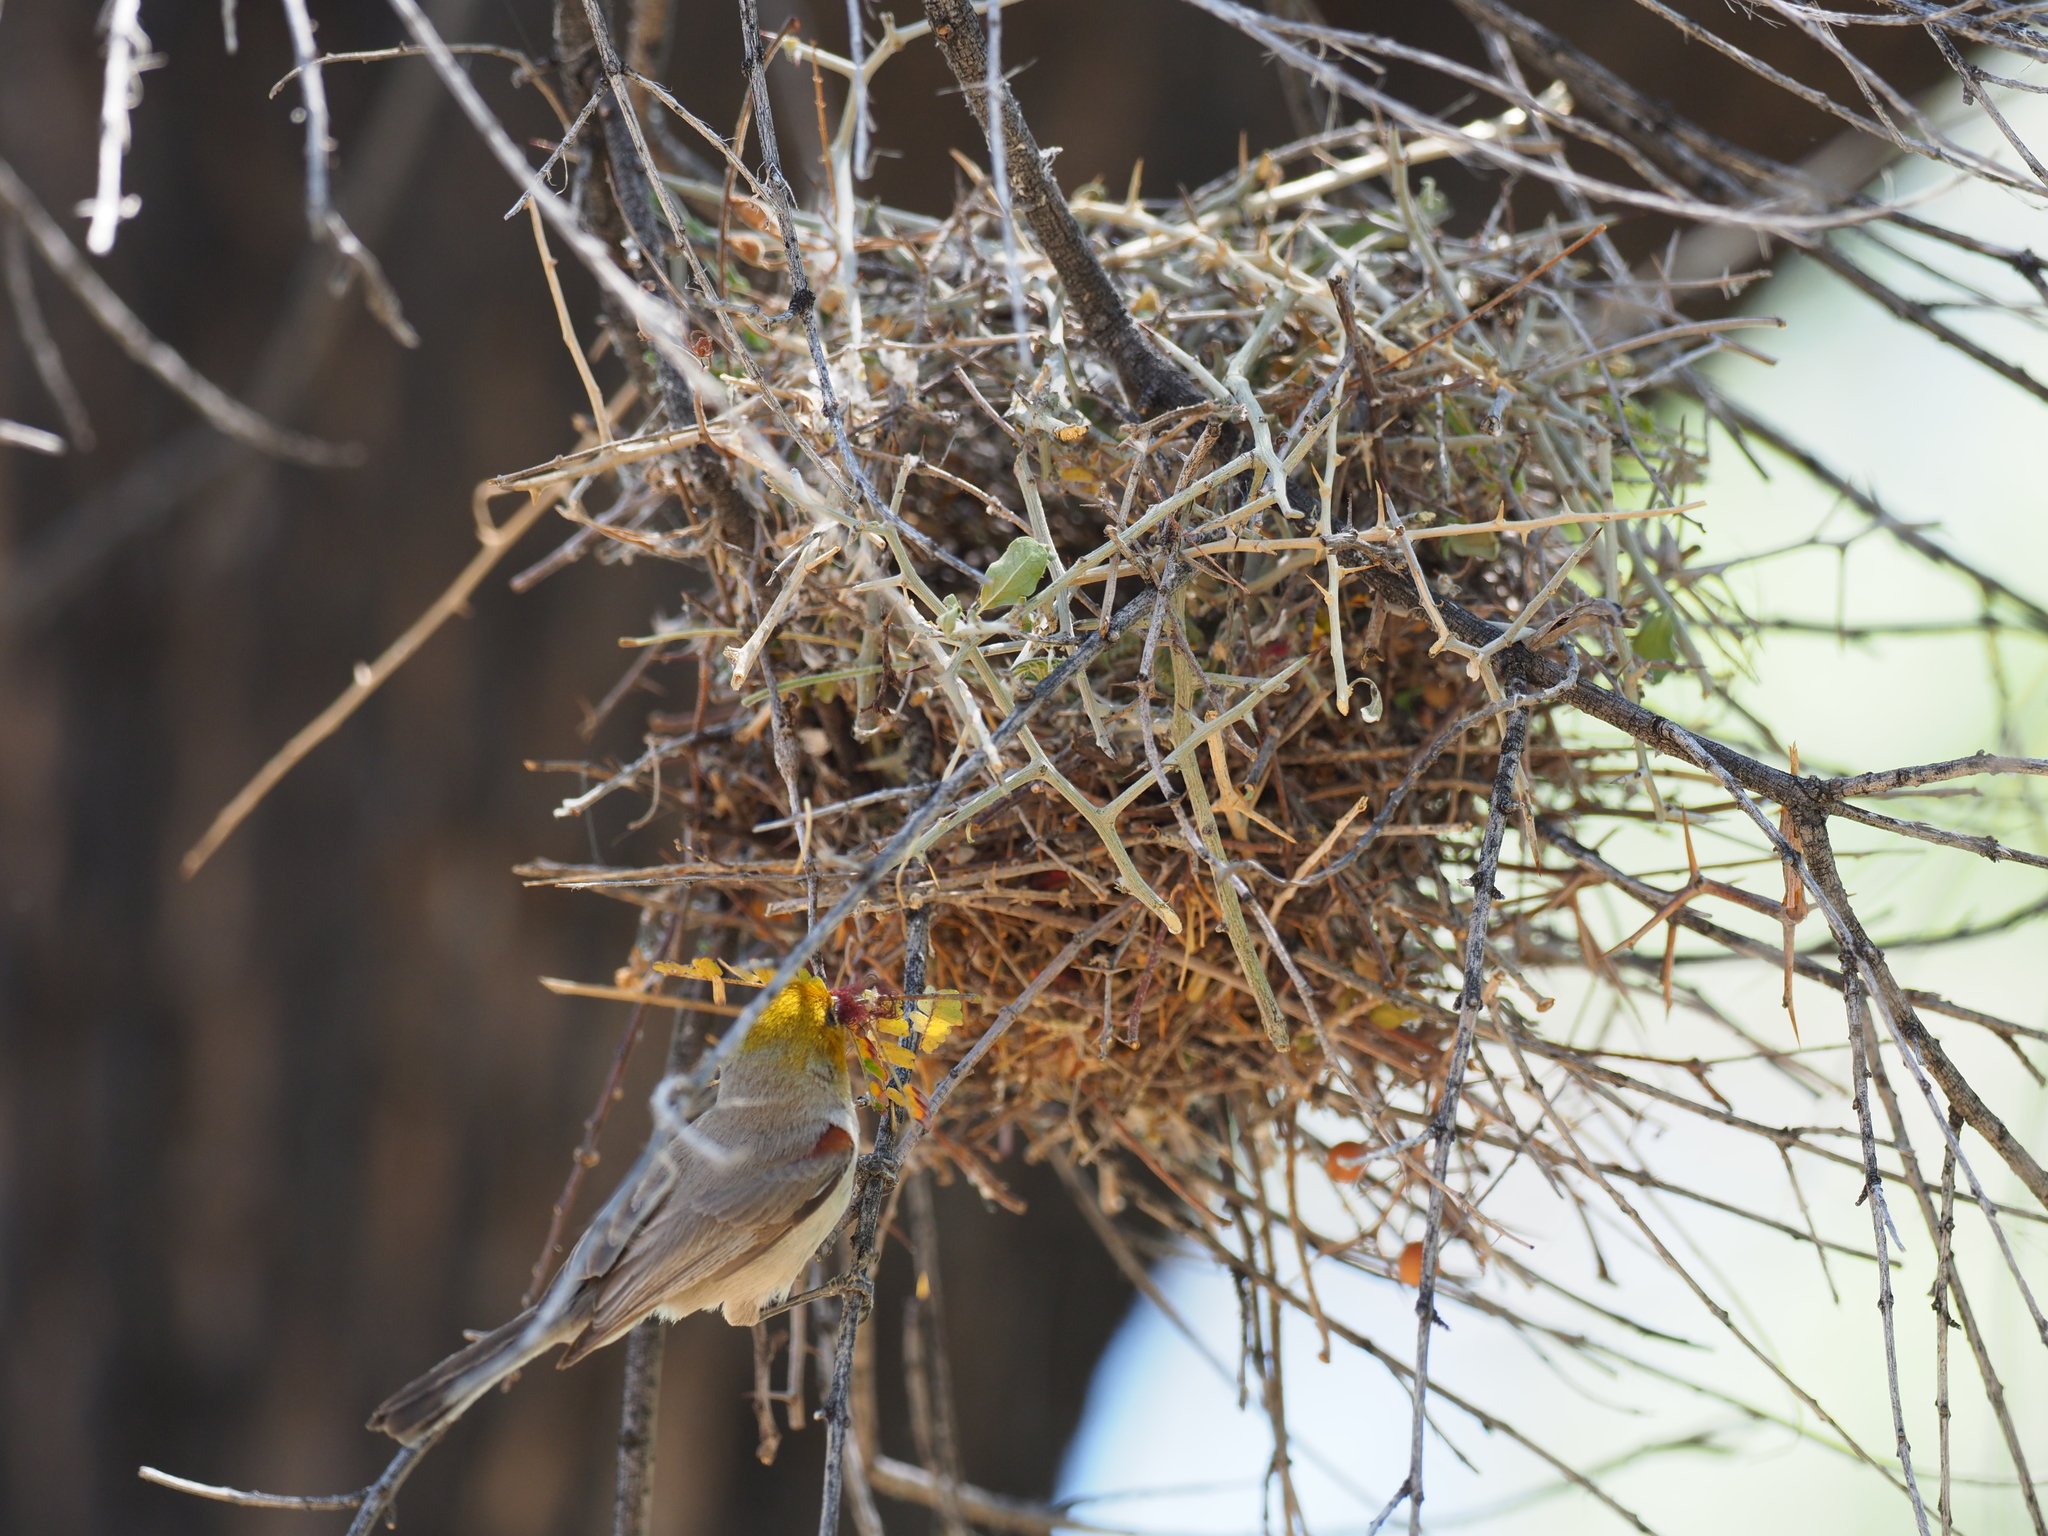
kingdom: Animalia
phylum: Chordata
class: Aves
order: Passeriformes
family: Remizidae
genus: Auriparus
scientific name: Auriparus flaviceps
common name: Verdin
